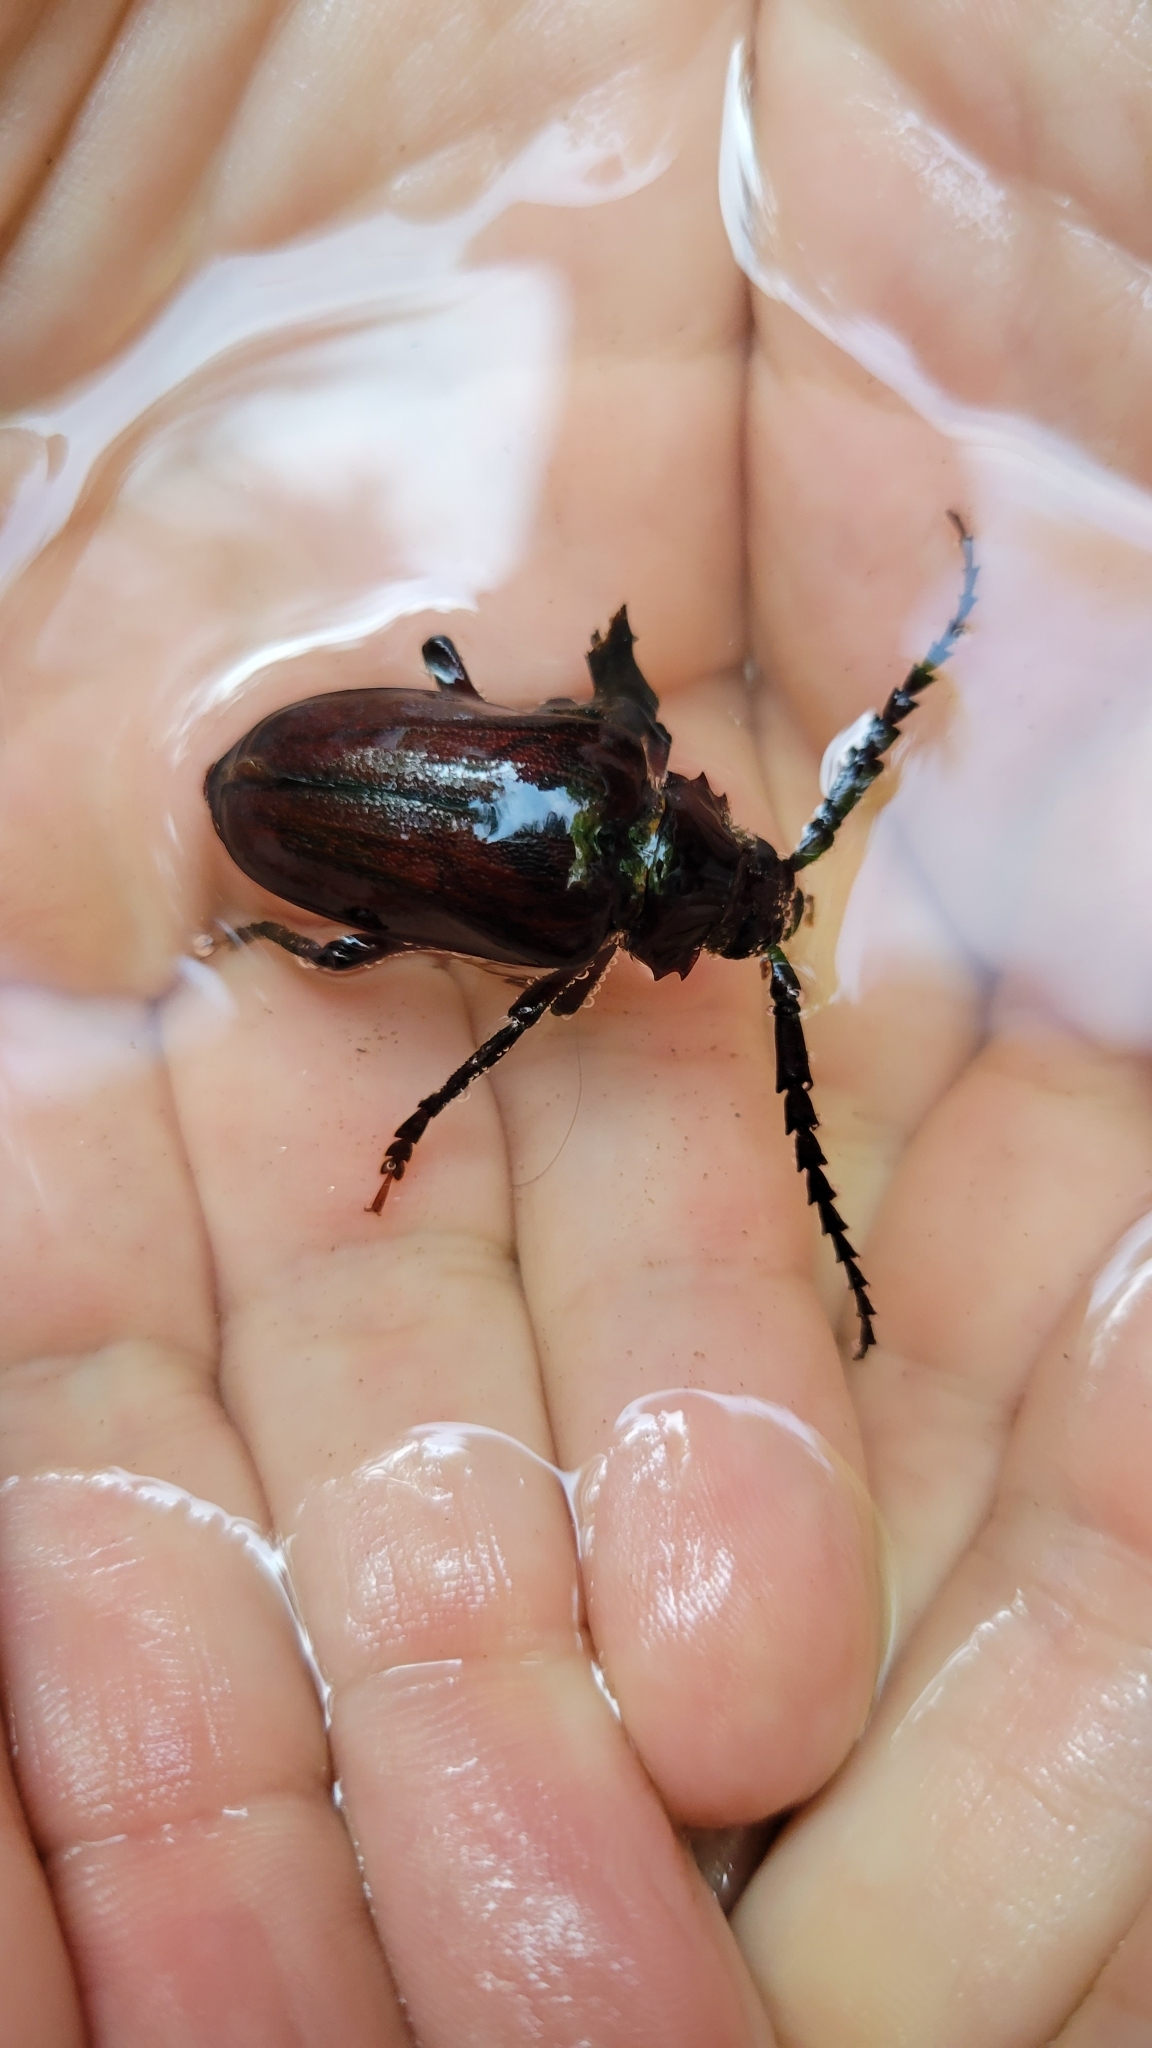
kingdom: Animalia
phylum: Arthropoda
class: Insecta
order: Coleoptera
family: Cerambycidae
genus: Prionus
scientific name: Prionus laticollis
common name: Broad necked prionus
